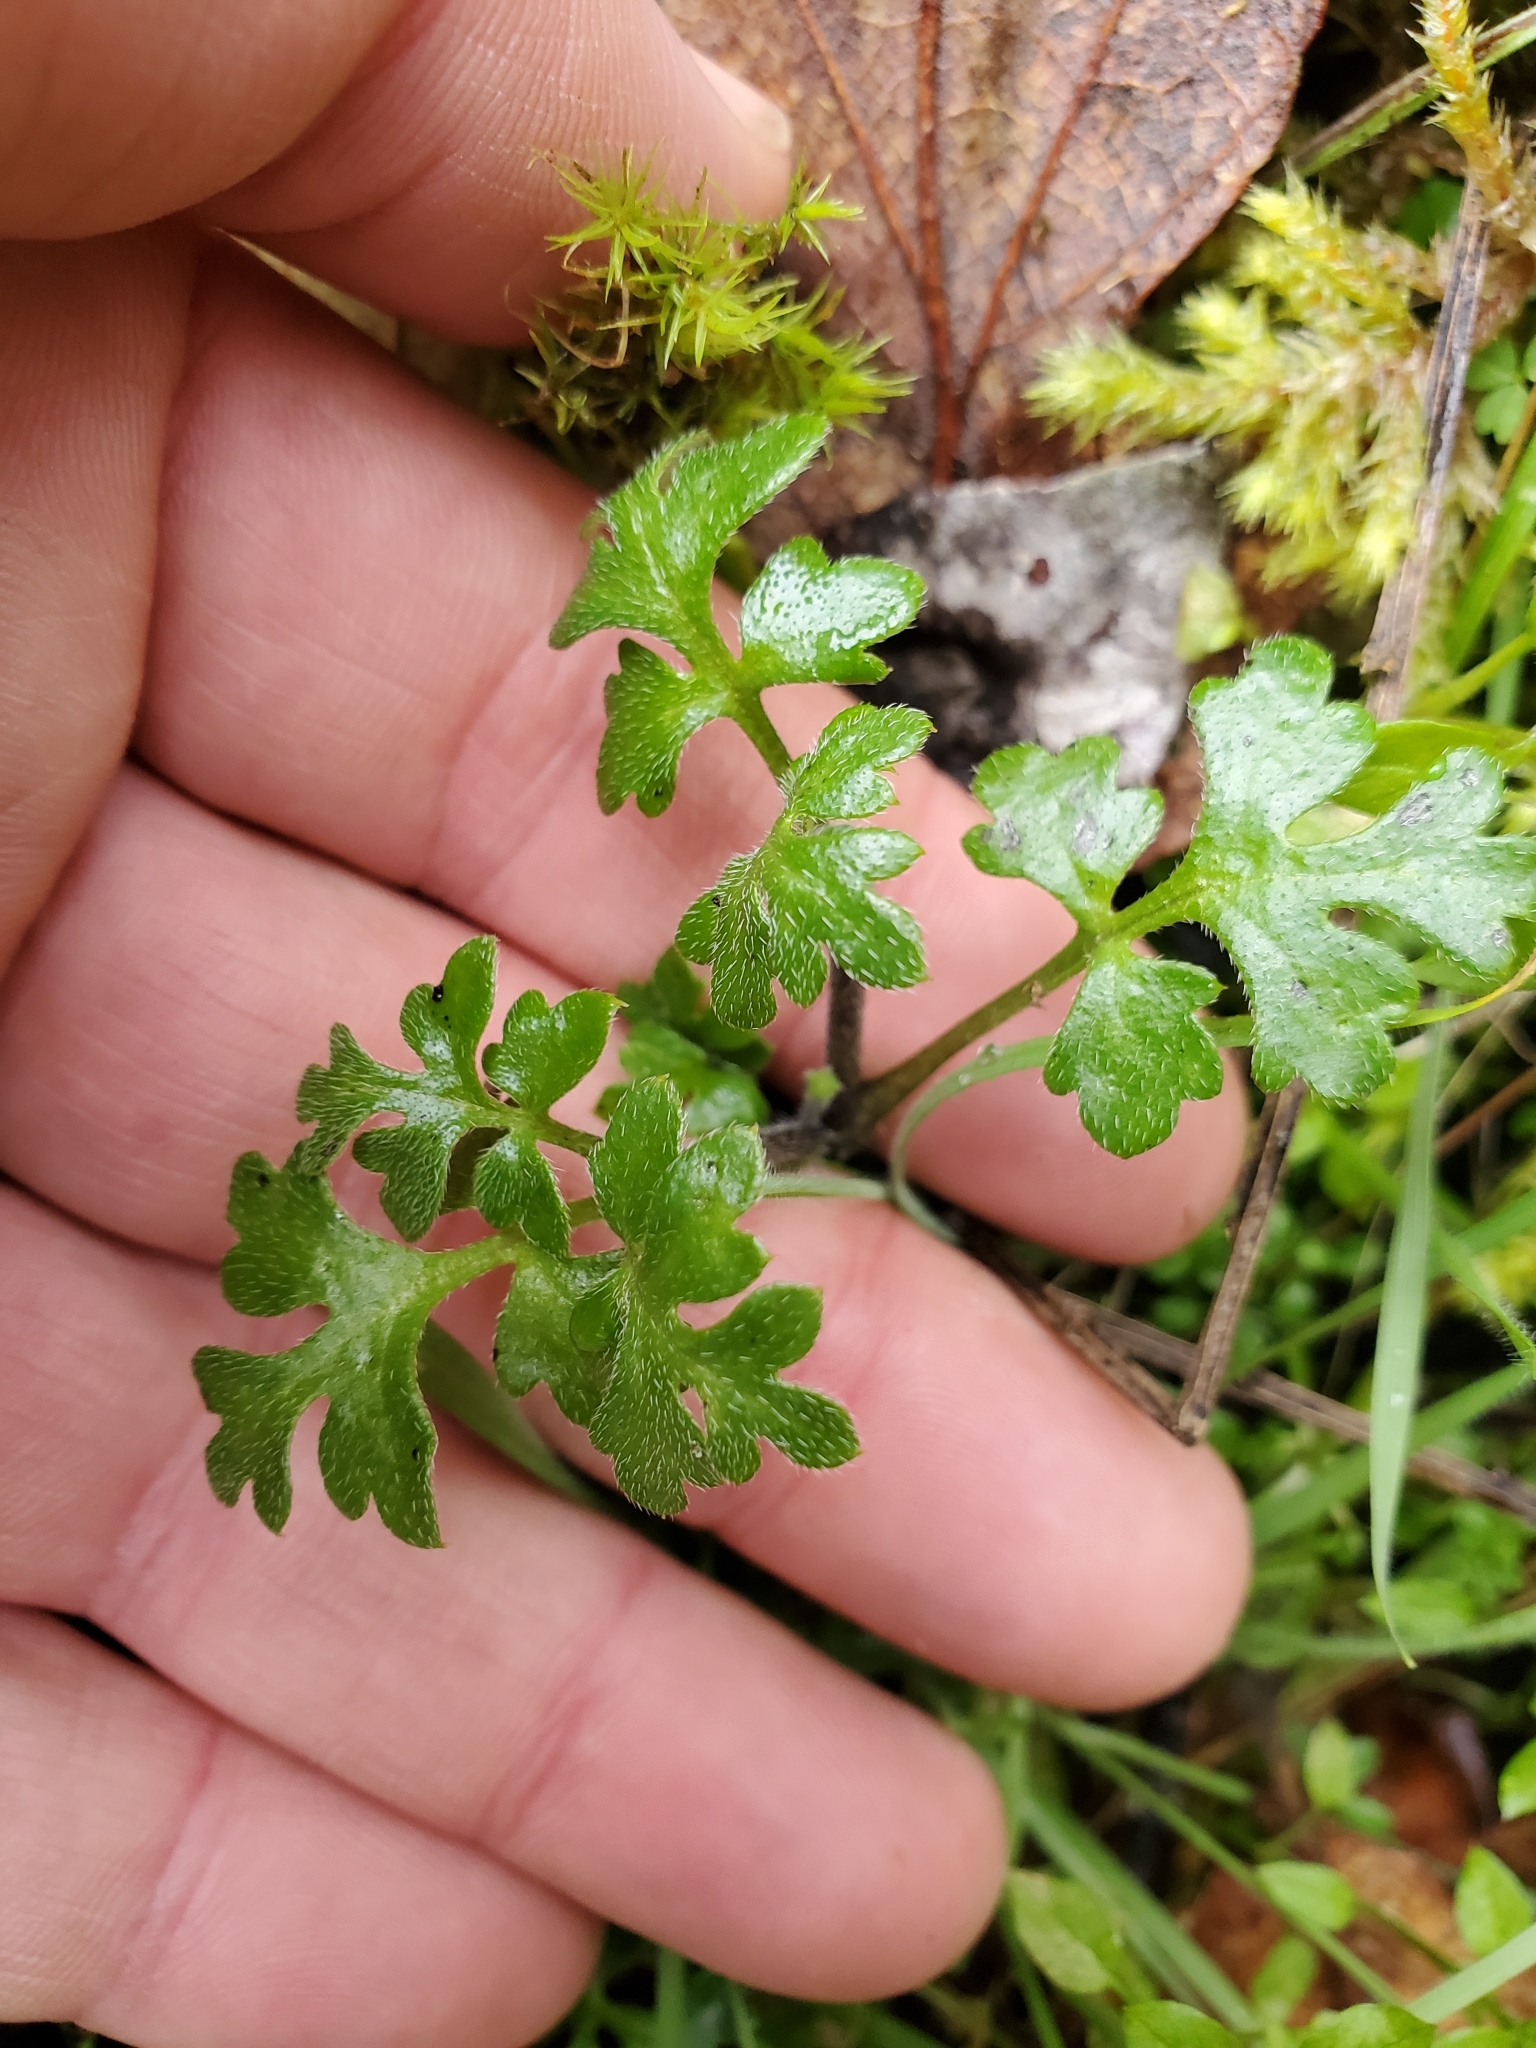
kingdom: Plantae
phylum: Tracheophyta
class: Magnoliopsida
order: Boraginales
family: Hydrophyllaceae
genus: Nemophila
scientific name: Nemophila parviflora
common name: Small-flowered baby-blue-eyes
